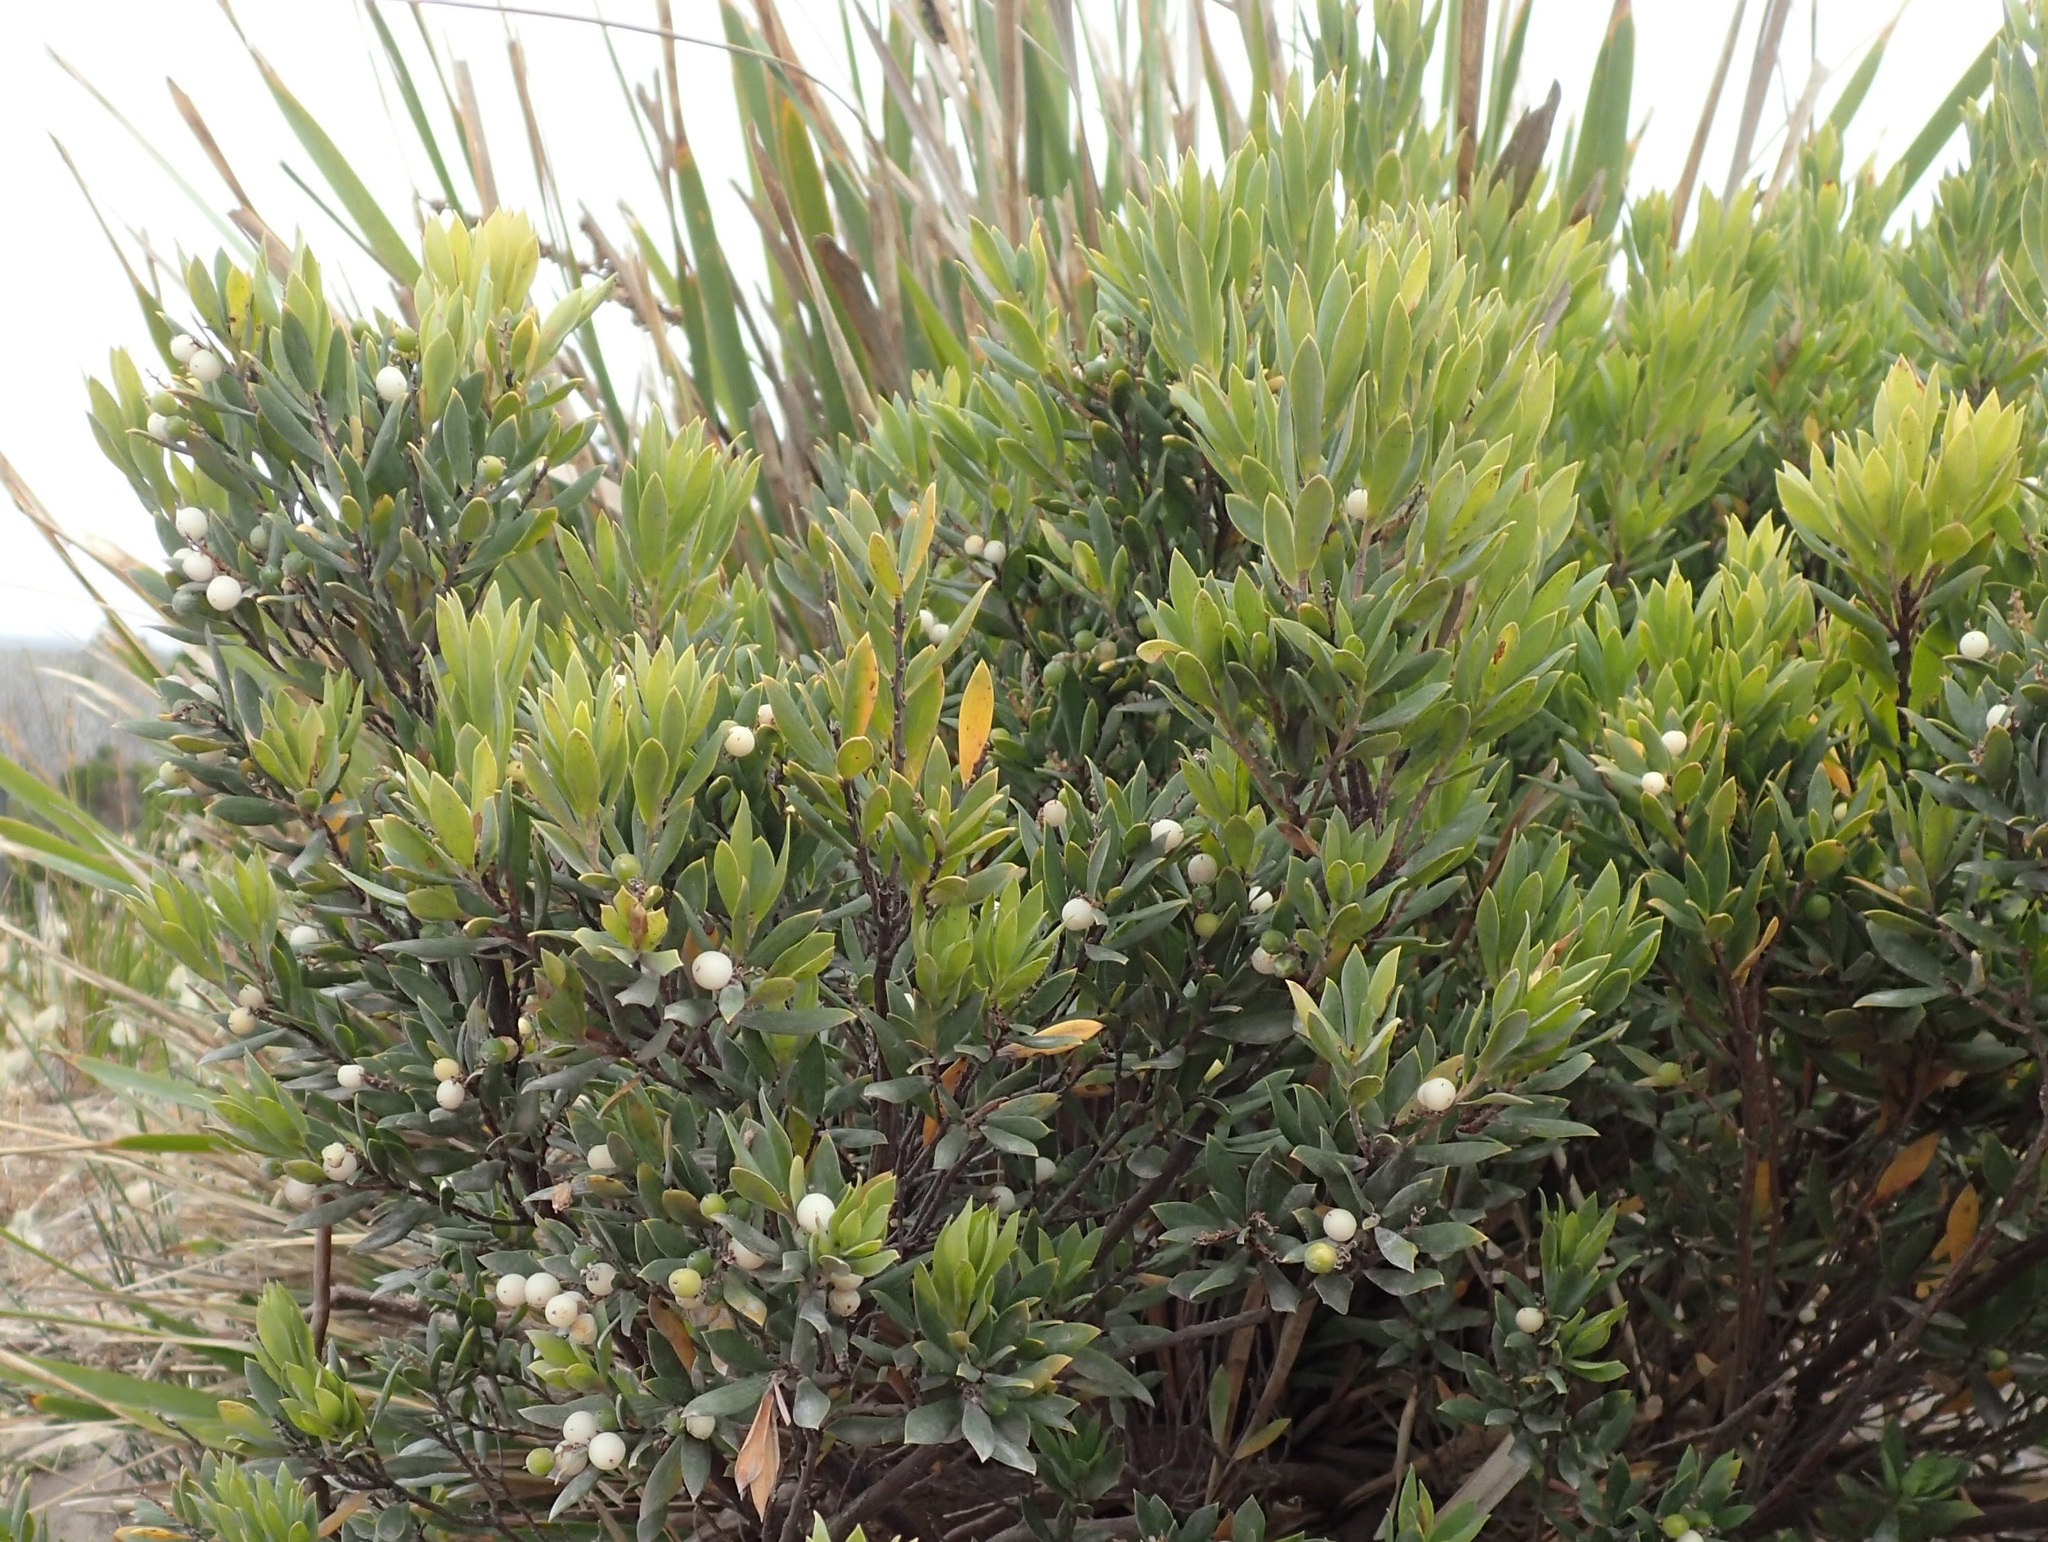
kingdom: Plantae
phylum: Tracheophyta
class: Magnoliopsida
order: Ericales
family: Ericaceae
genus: Leptecophylla
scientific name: Leptecophylla parvifolia
